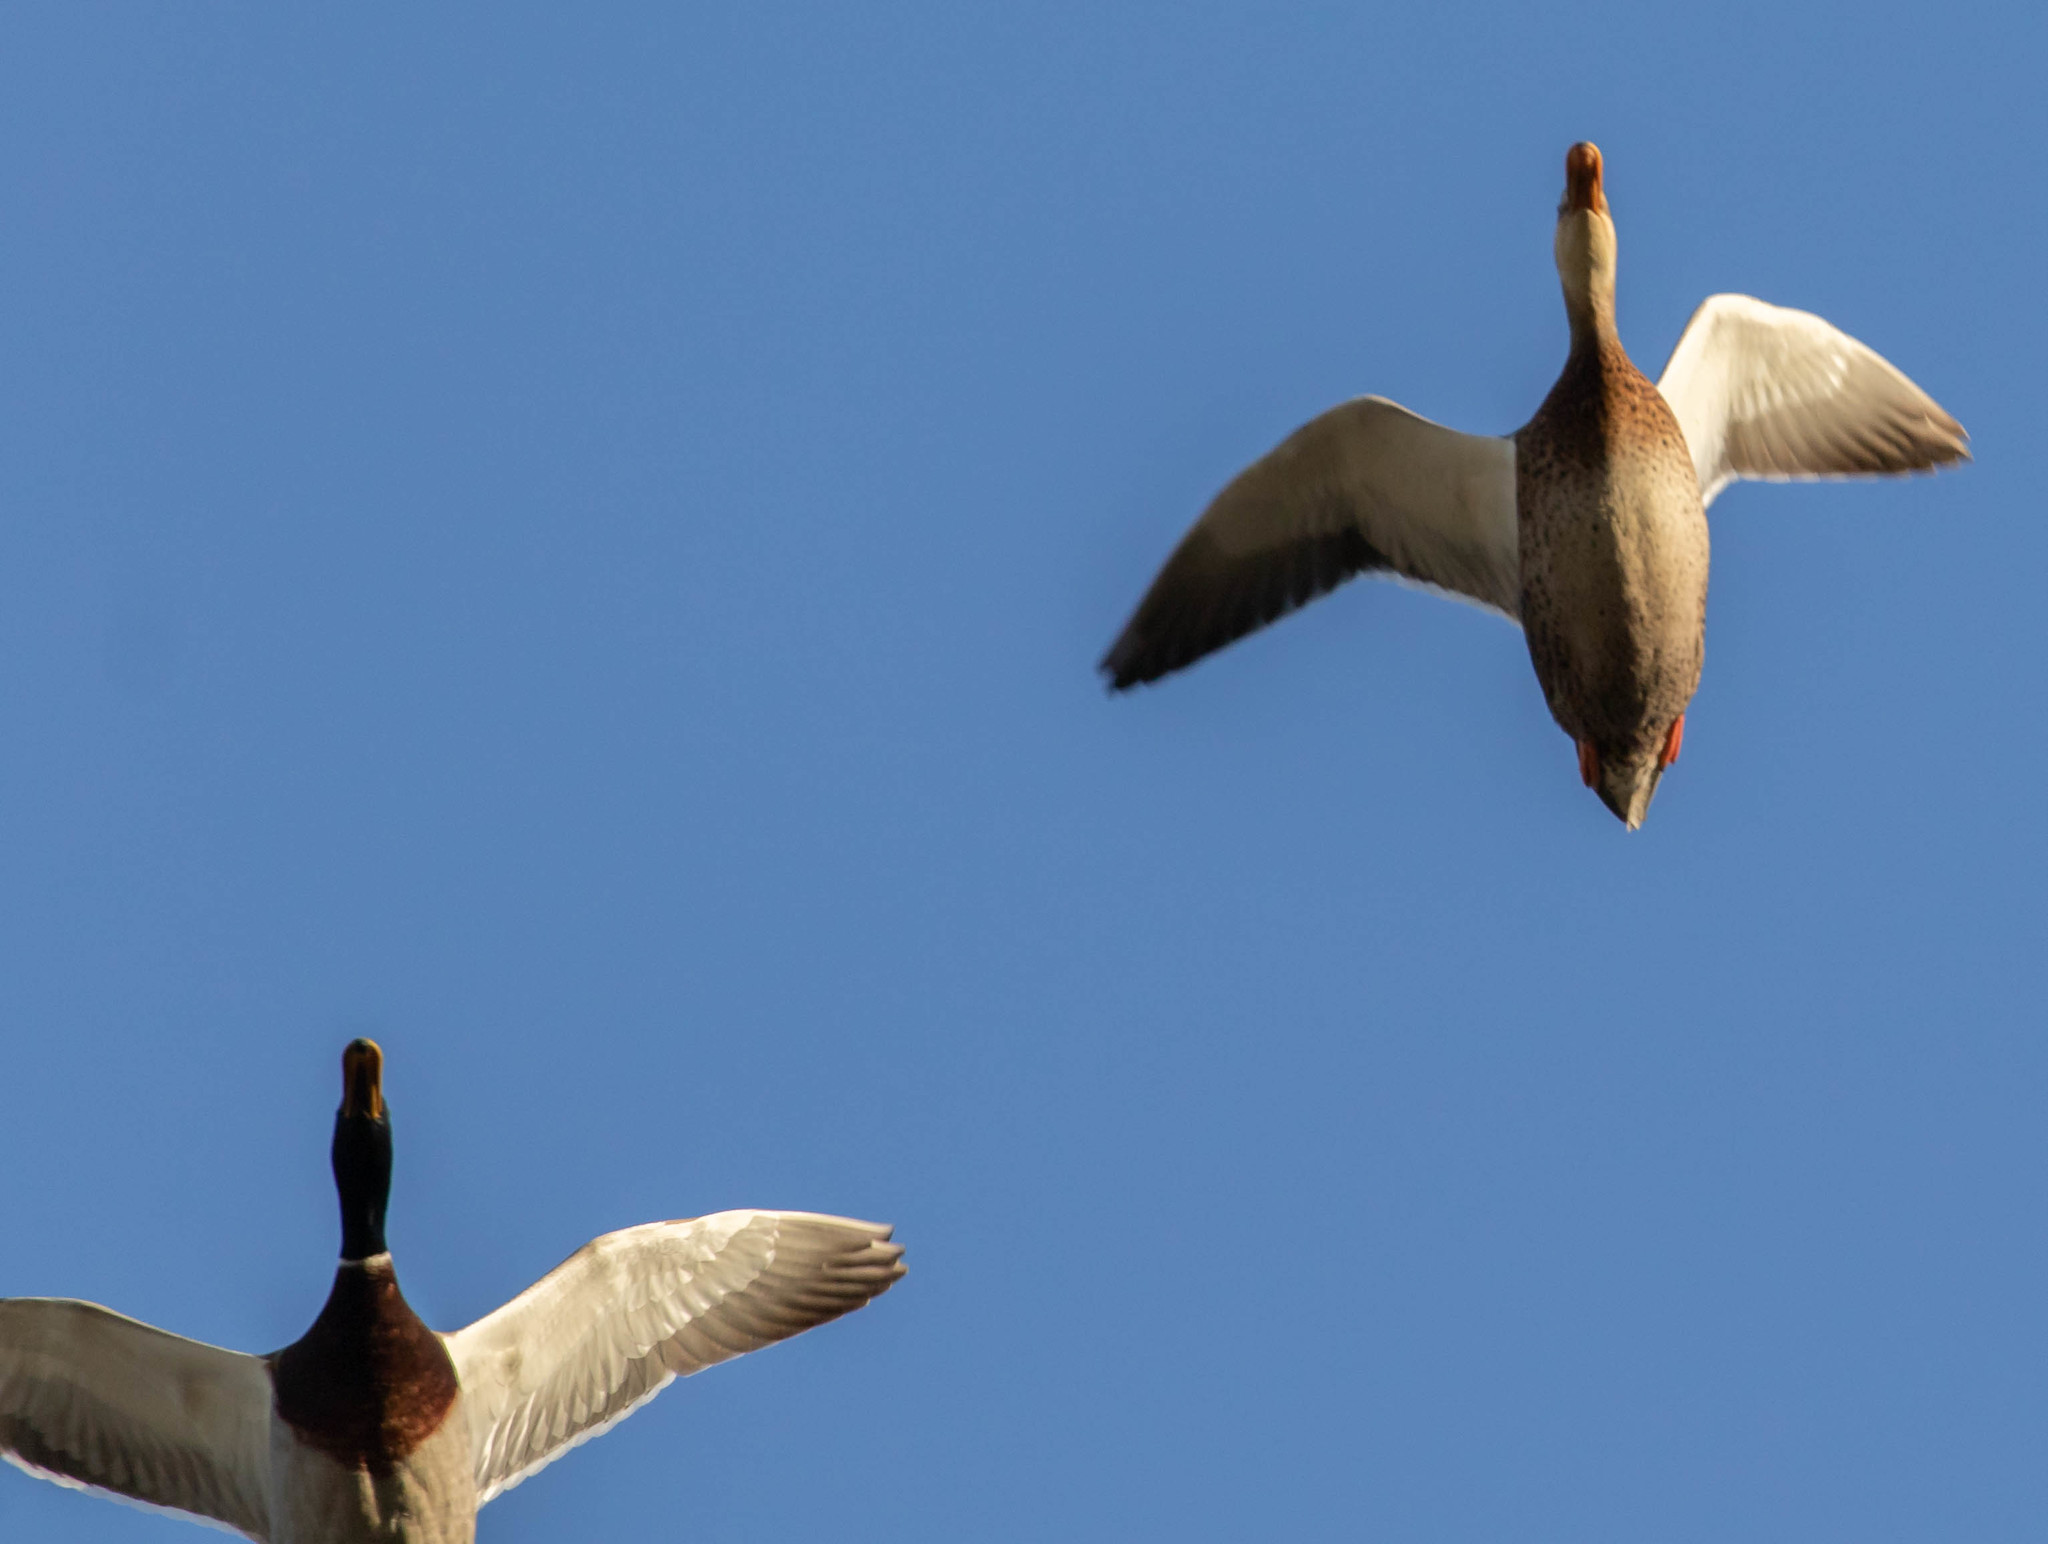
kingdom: Animalia
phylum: Chordata
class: Aves
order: Anseriformes
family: Anatidae
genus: Anas
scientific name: Anas platyrhynchos
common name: Mallard
